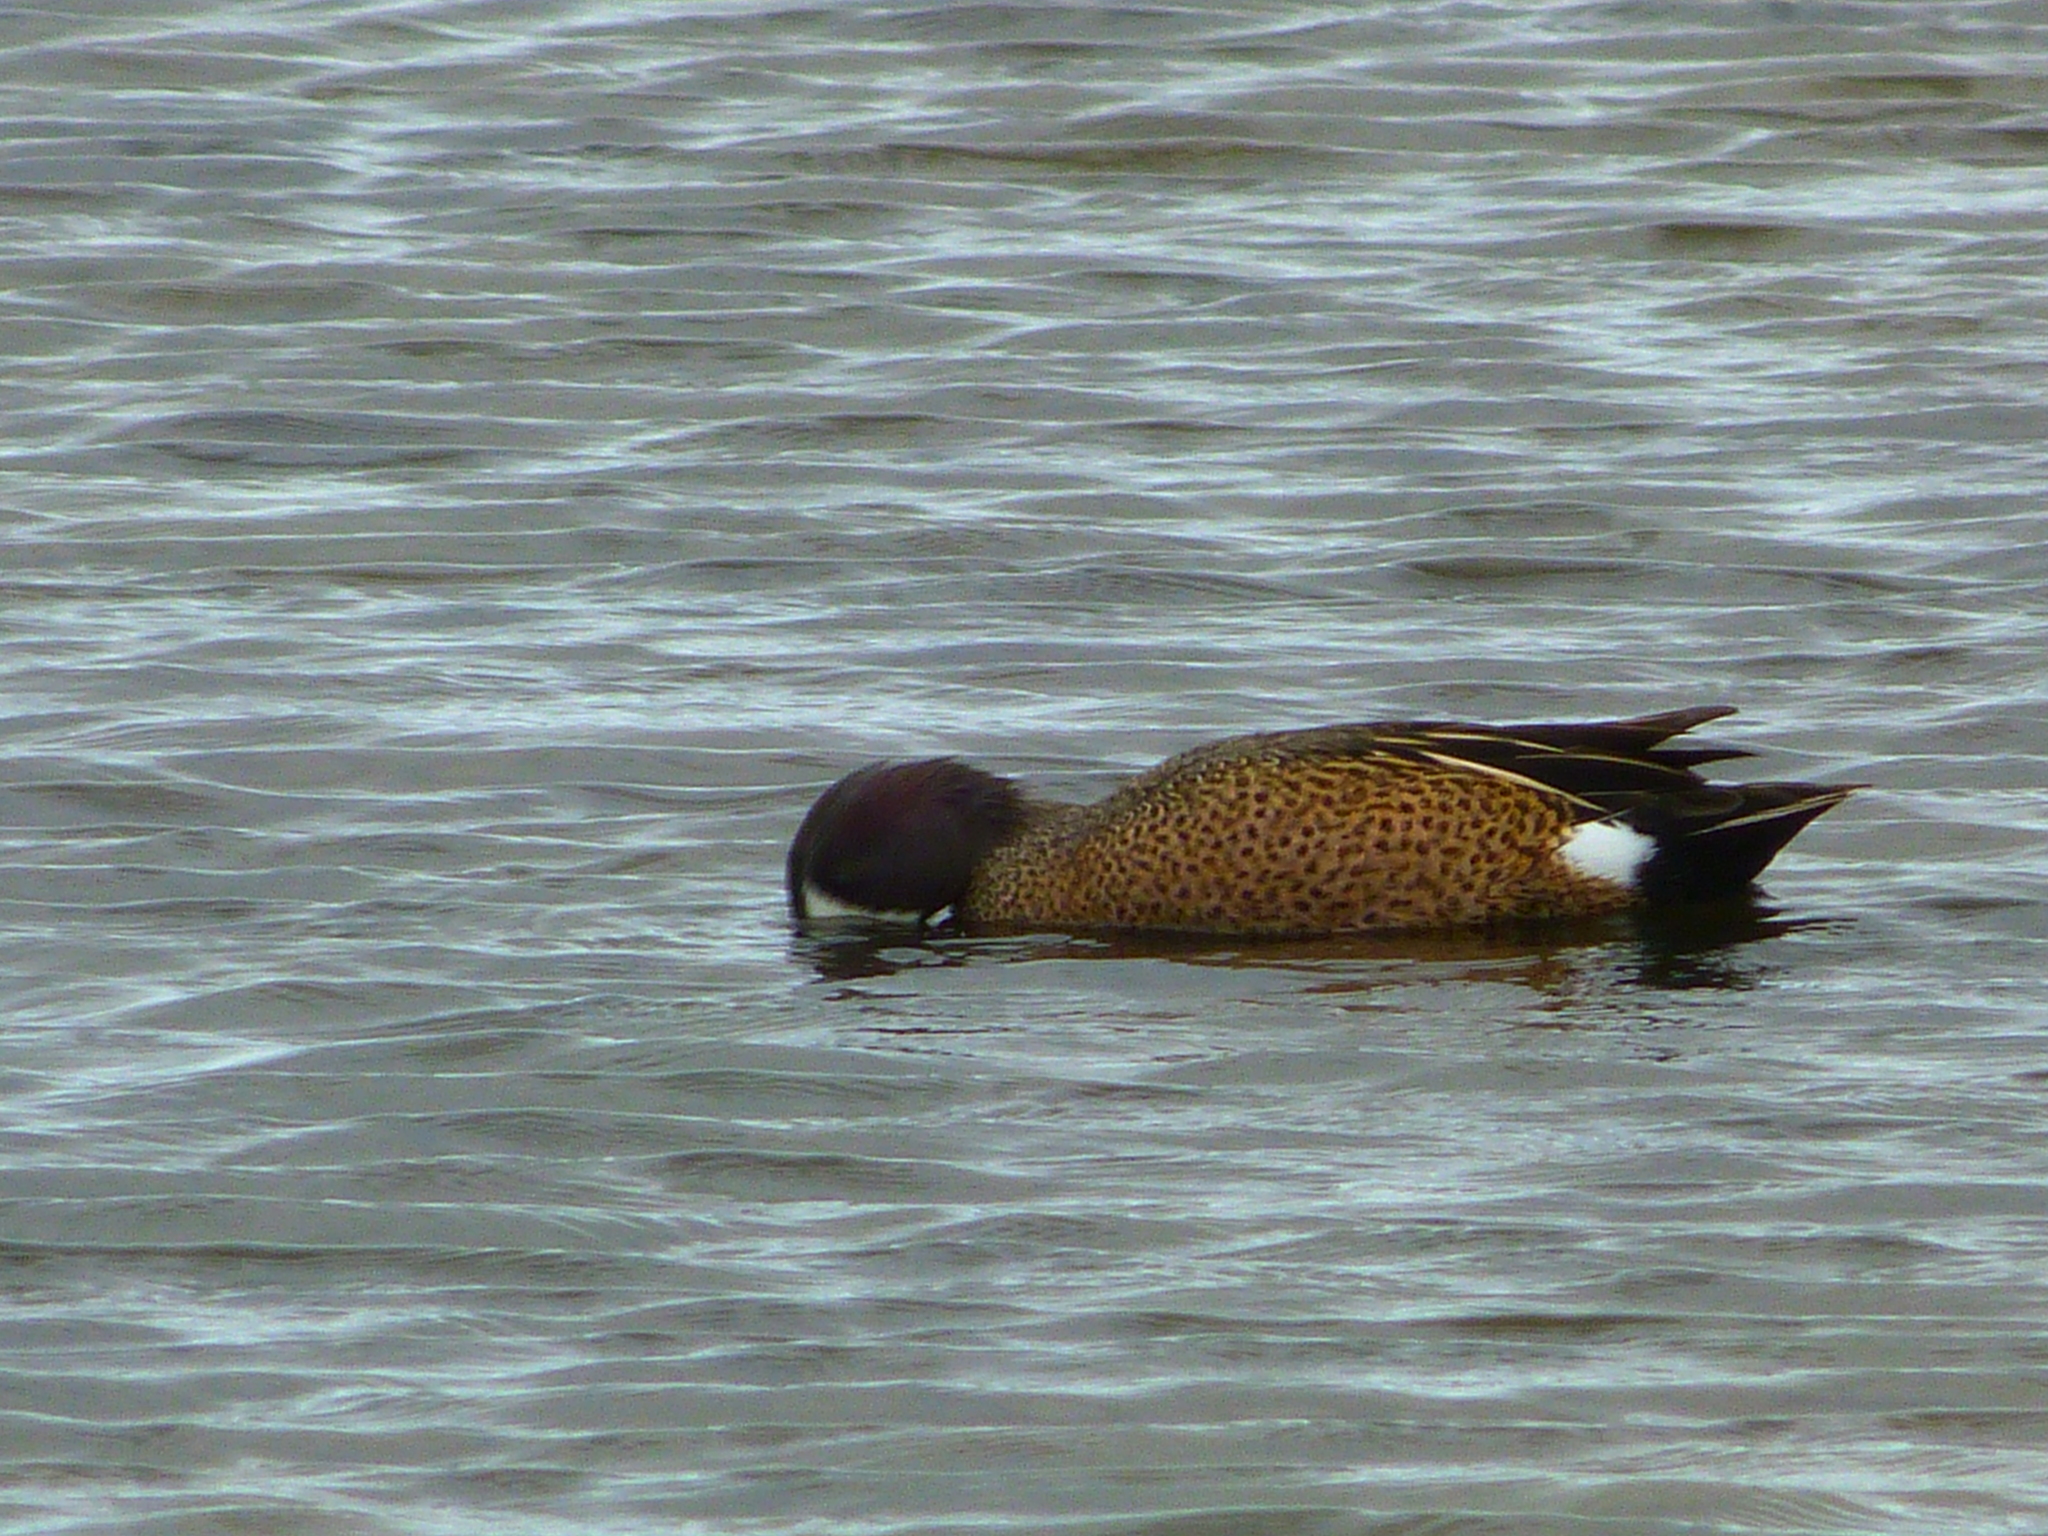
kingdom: Animalia
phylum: Chordata
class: Aves
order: Anseriformes
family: Anatidae
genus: Spatula
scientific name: Spatula discors
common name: Blue-winged teal
